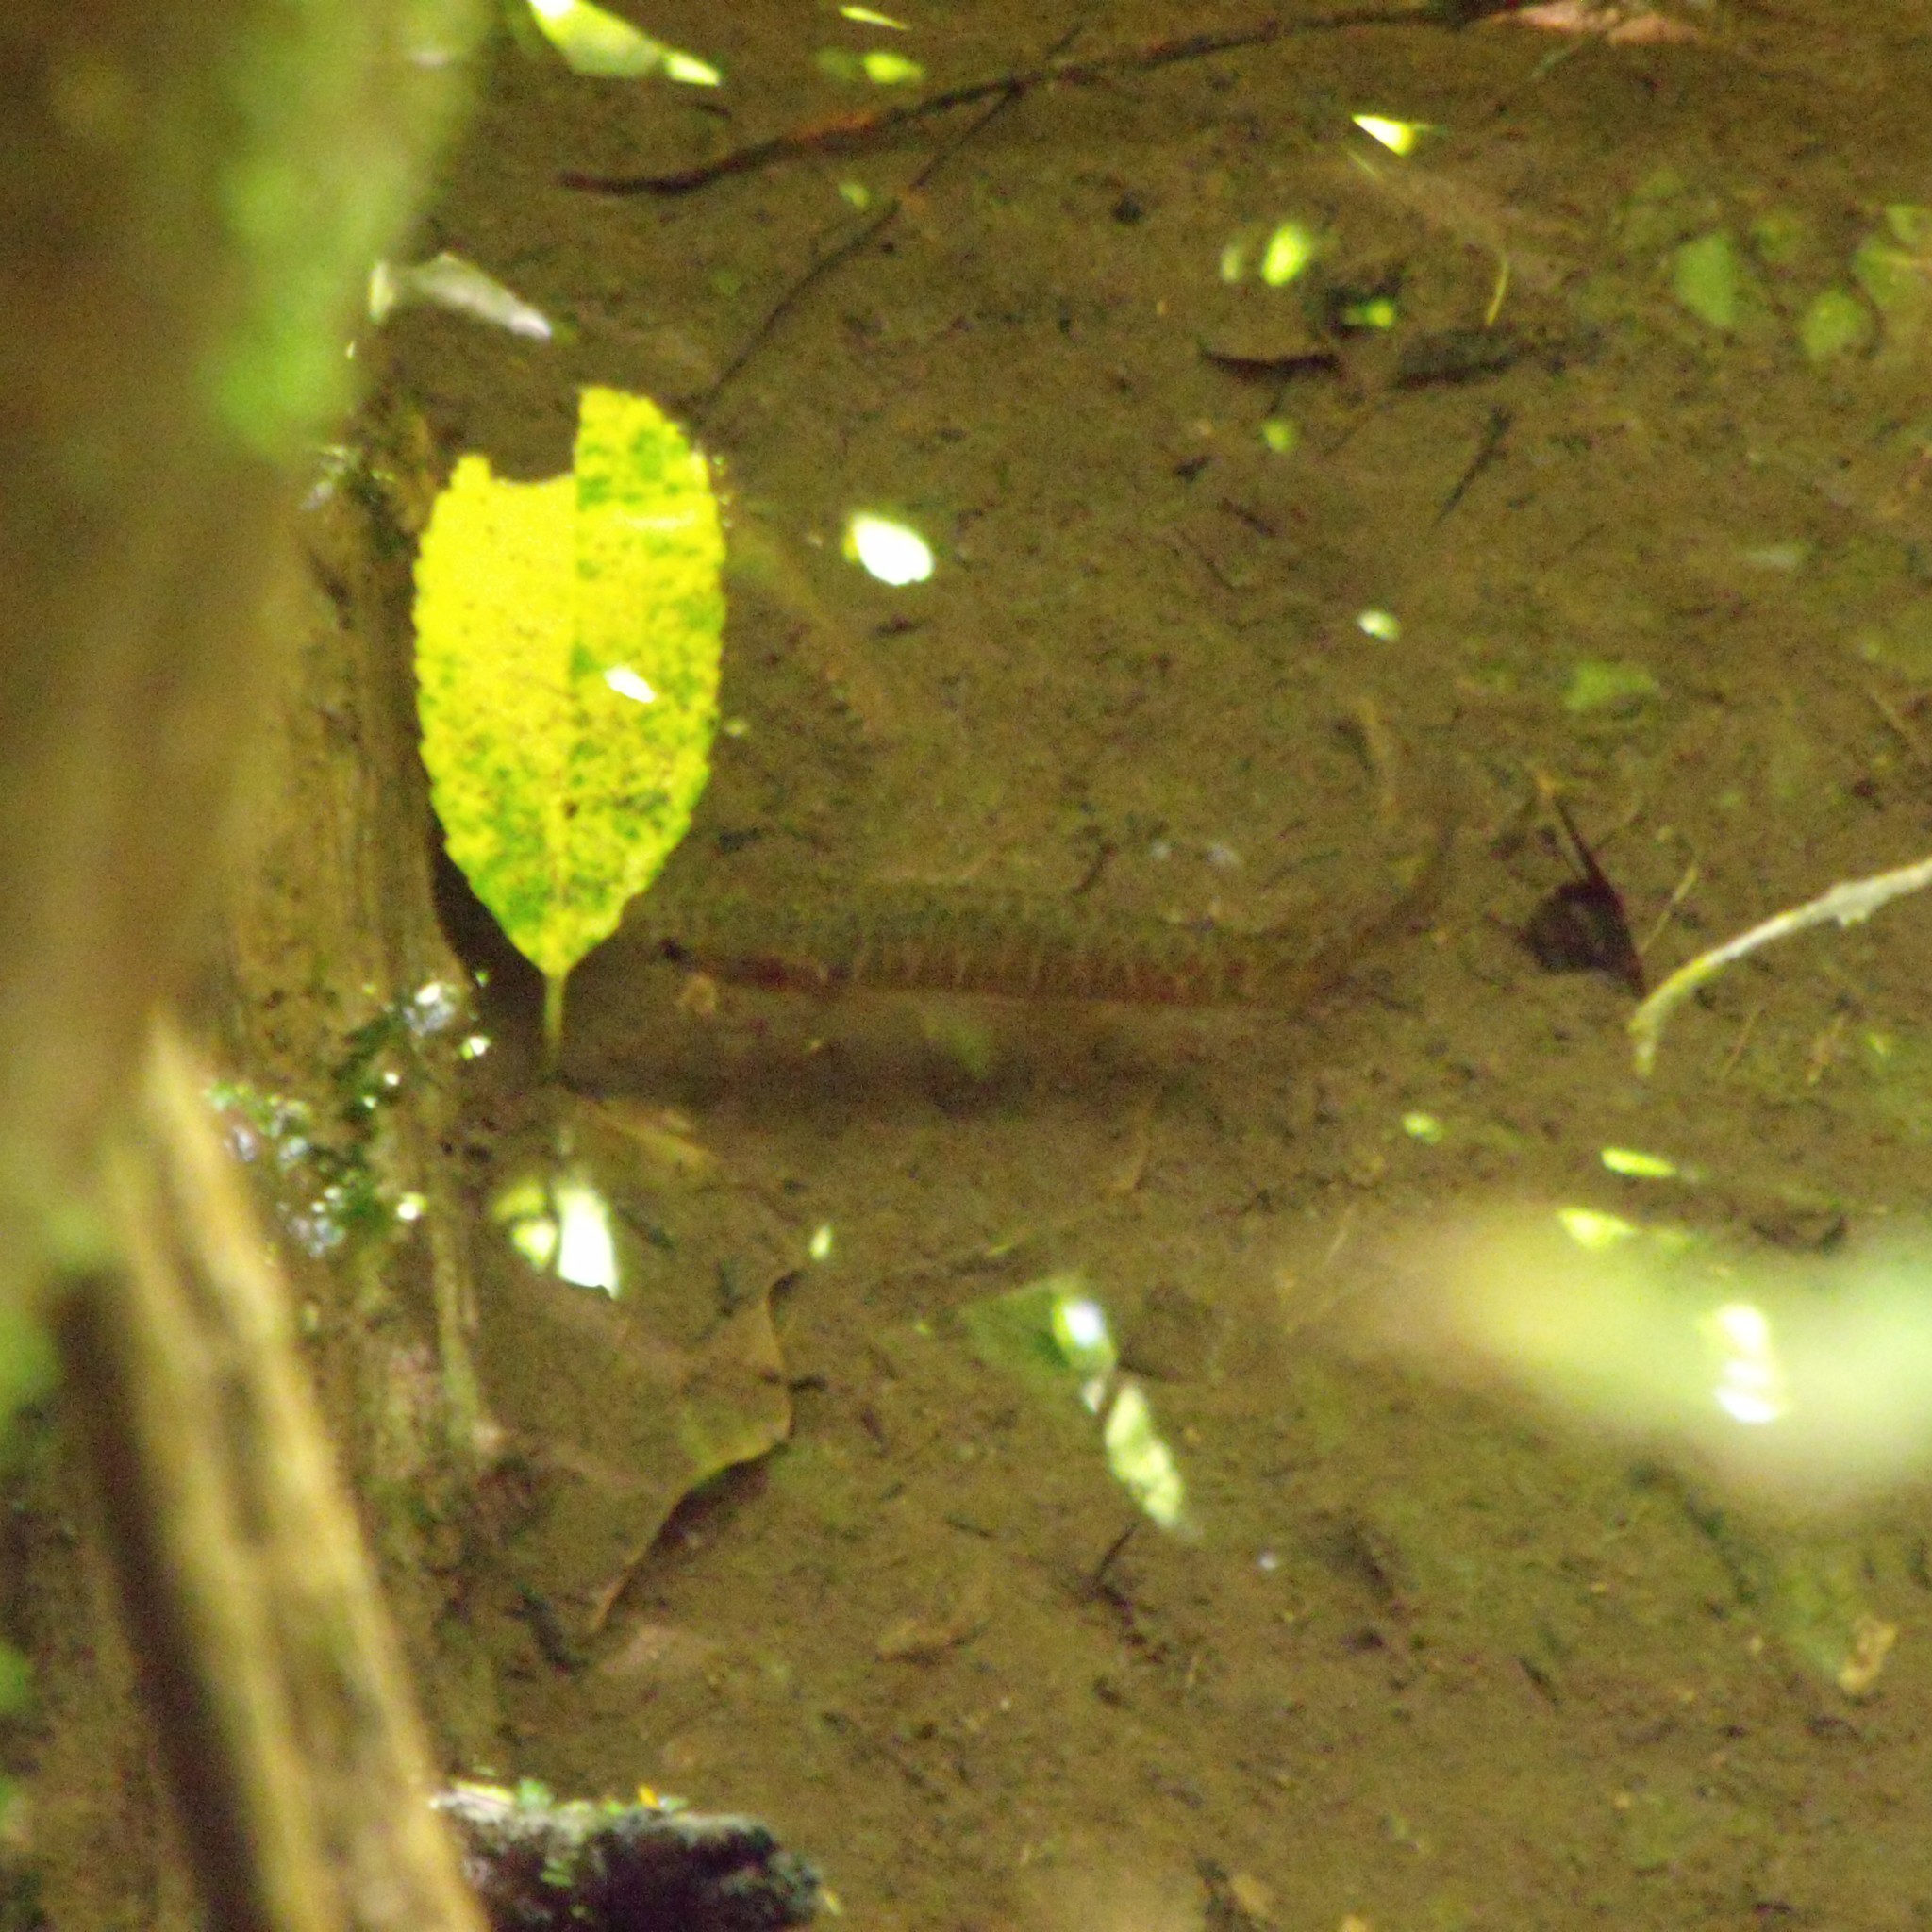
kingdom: Animalia
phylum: Chordata
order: Osmeriformes
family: Galaxiidae
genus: Galaxias
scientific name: Galaxias fasciatus
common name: Banded kokopu
